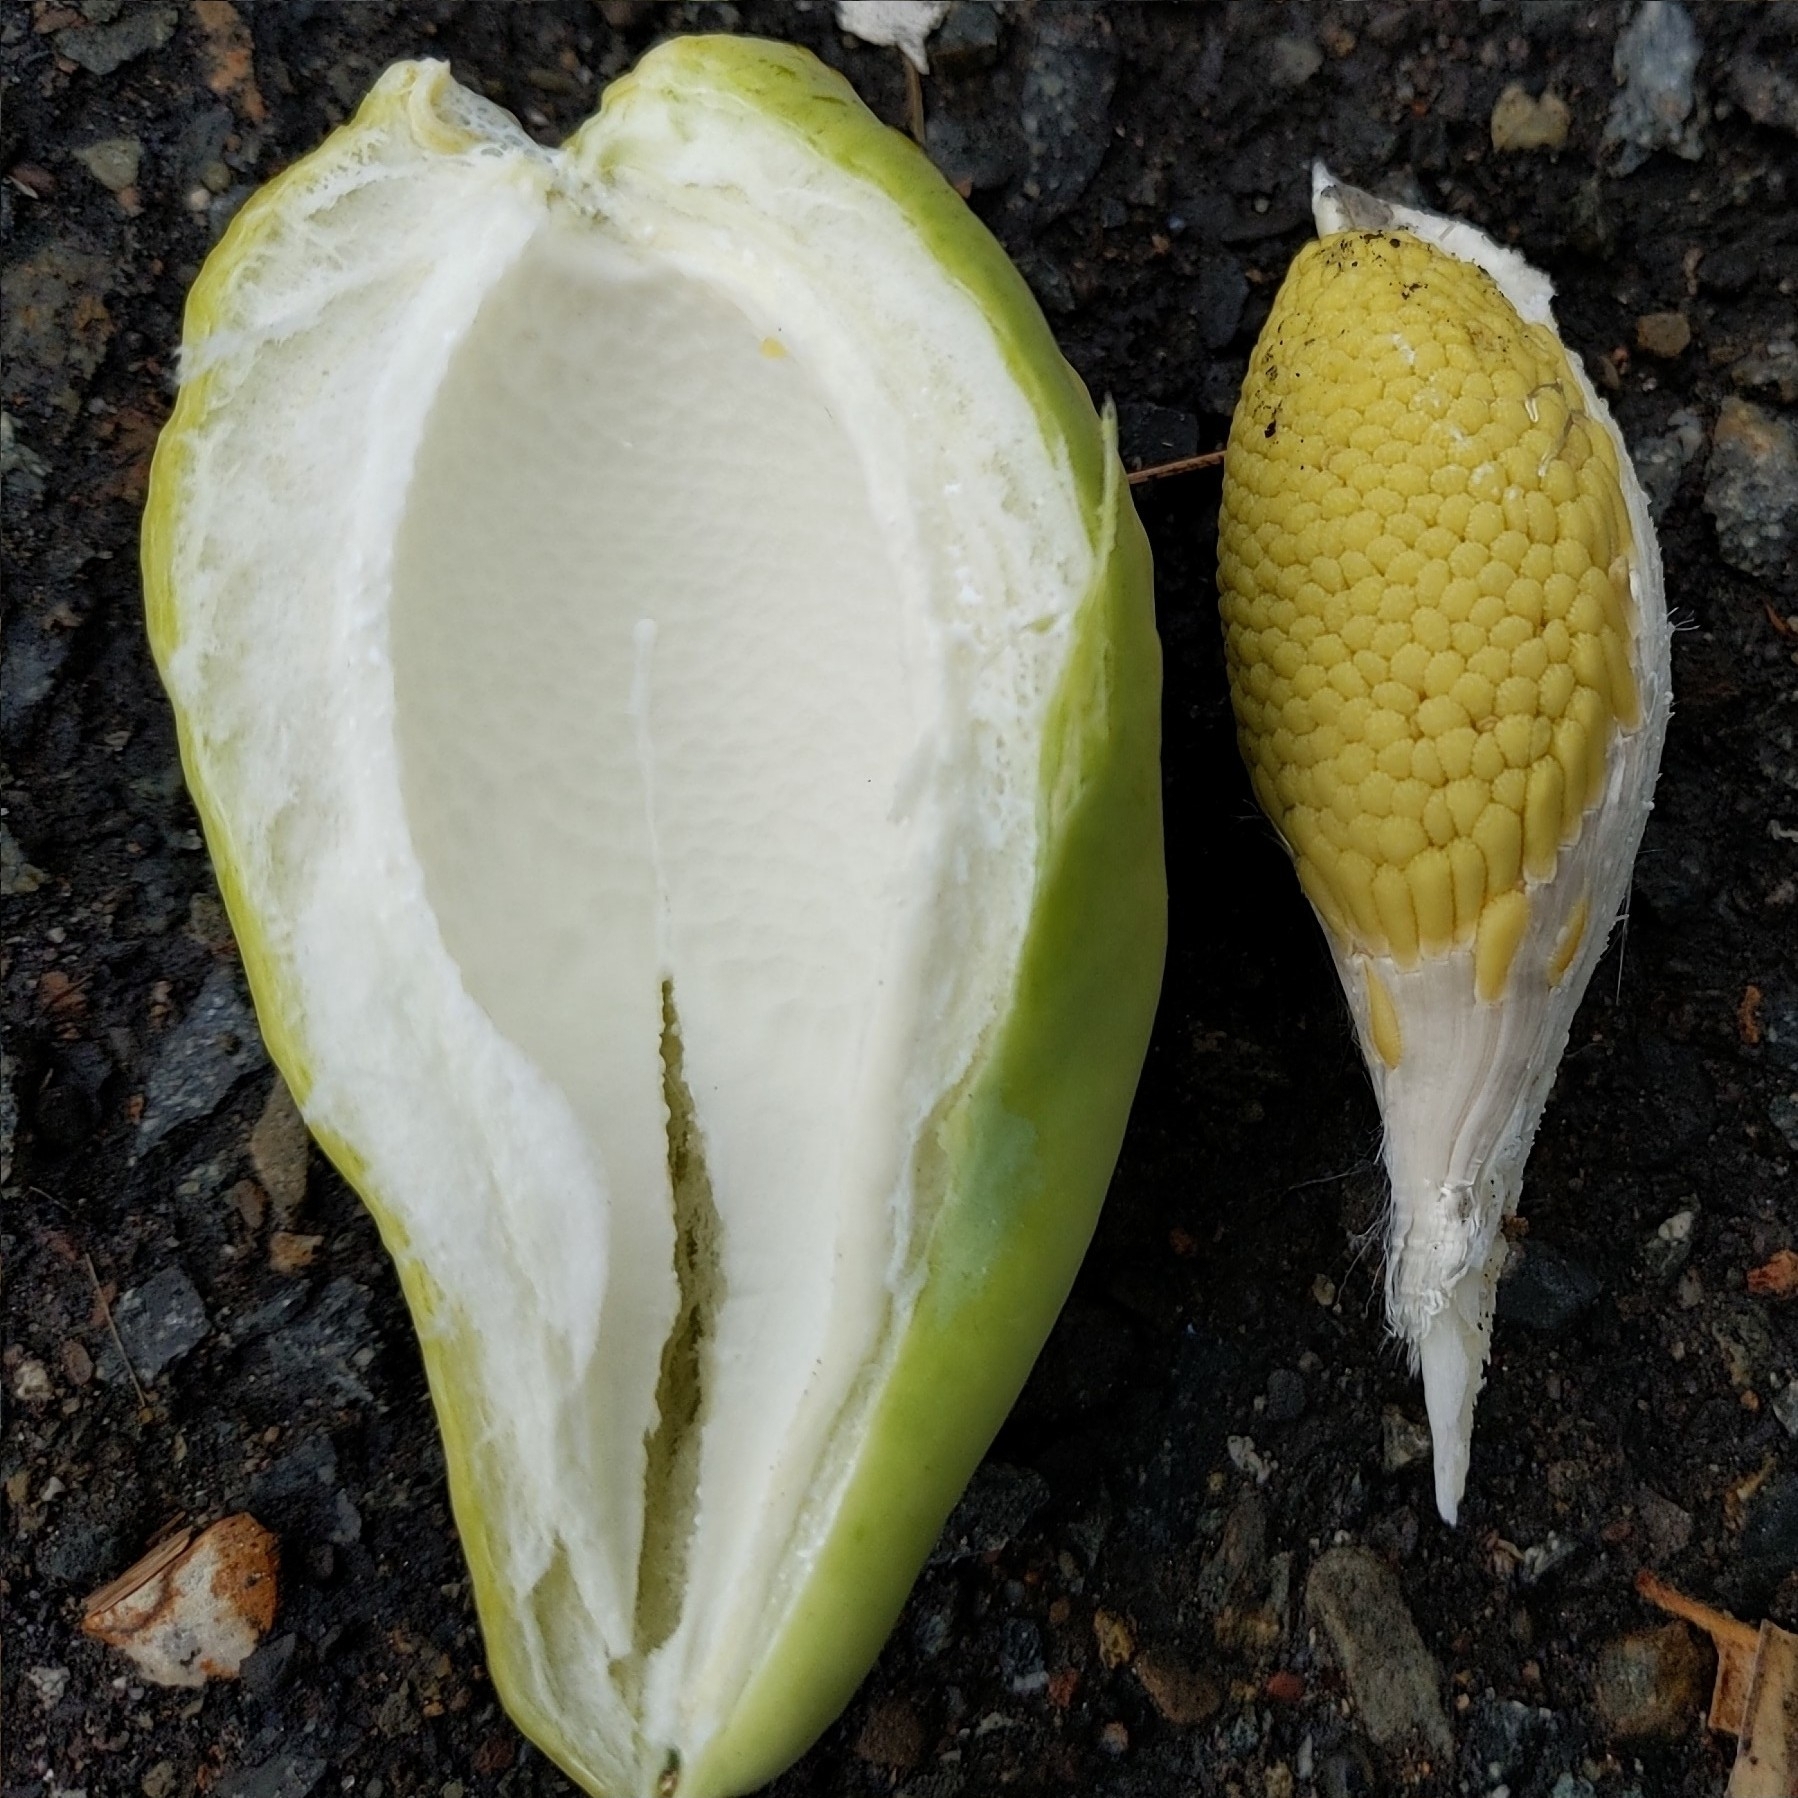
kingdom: Plantae
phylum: Tracheophyta
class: Magnoliopsida
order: Gentianales
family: Apocynaceae
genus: Araujia
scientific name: Araujia sericifera
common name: White bladderflower
